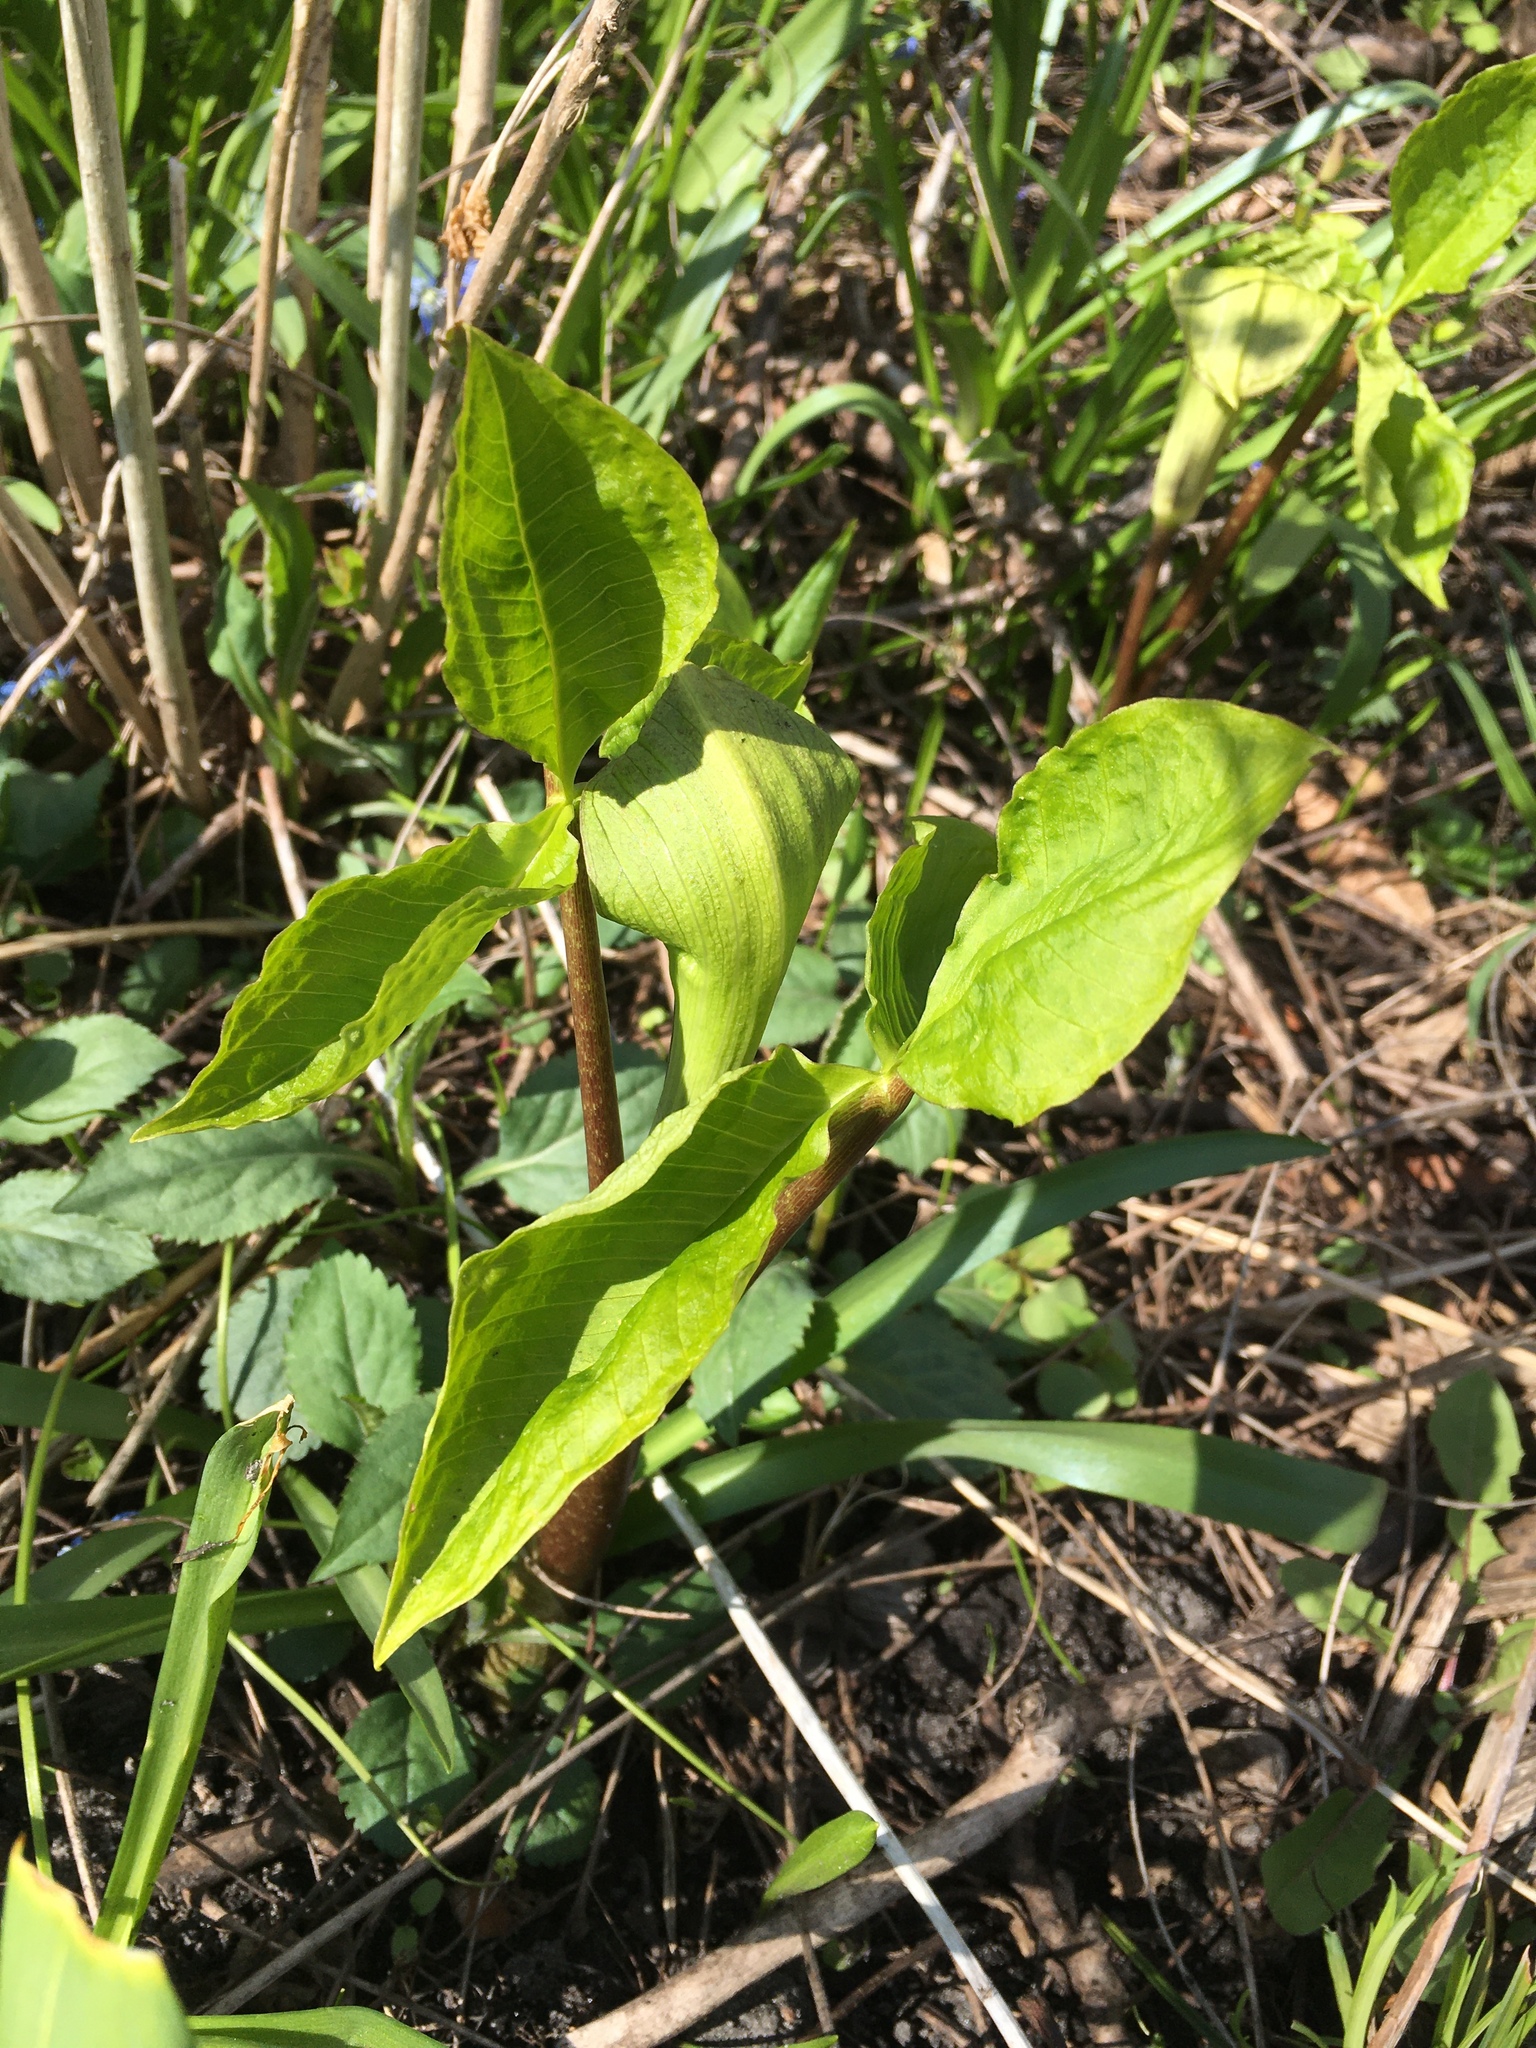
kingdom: Plantae
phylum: Tracheophyta
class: Liliopsida
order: Alismatales
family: Araceae
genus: Arisaema
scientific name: Arisaema triphyllum
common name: Jack-in-the-pulpit
